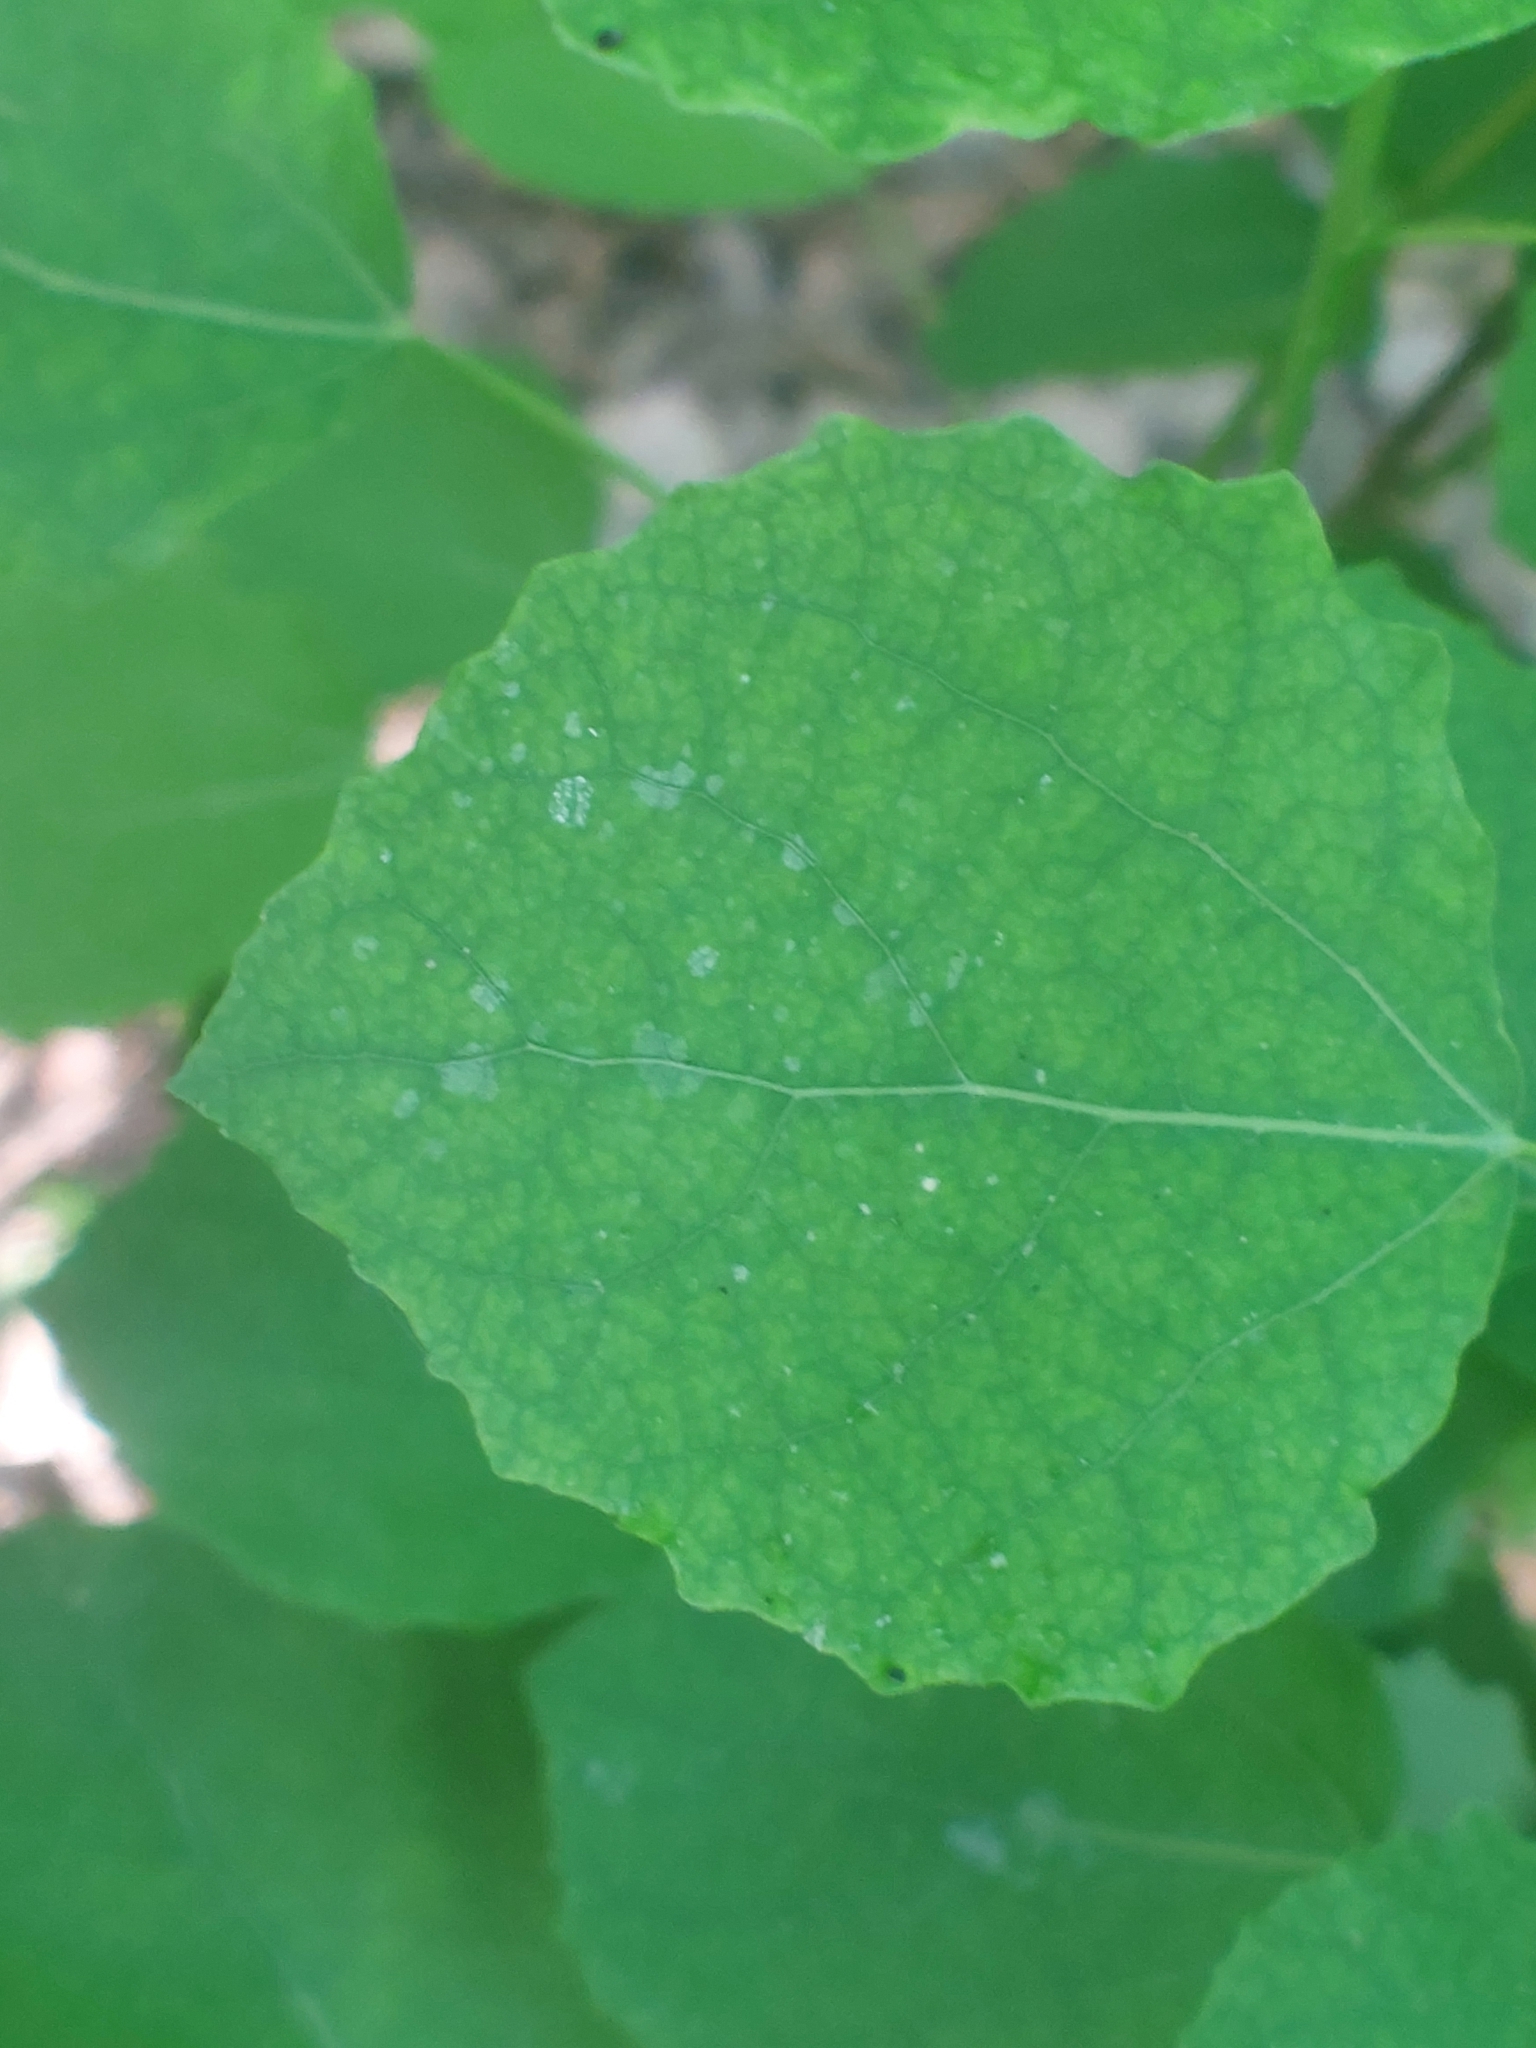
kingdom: Plantae
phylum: Tracheophyta
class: Magnoliopsida
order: Malpighiales
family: Salicaceae
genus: Populus
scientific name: Populus tremula
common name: European aspen
